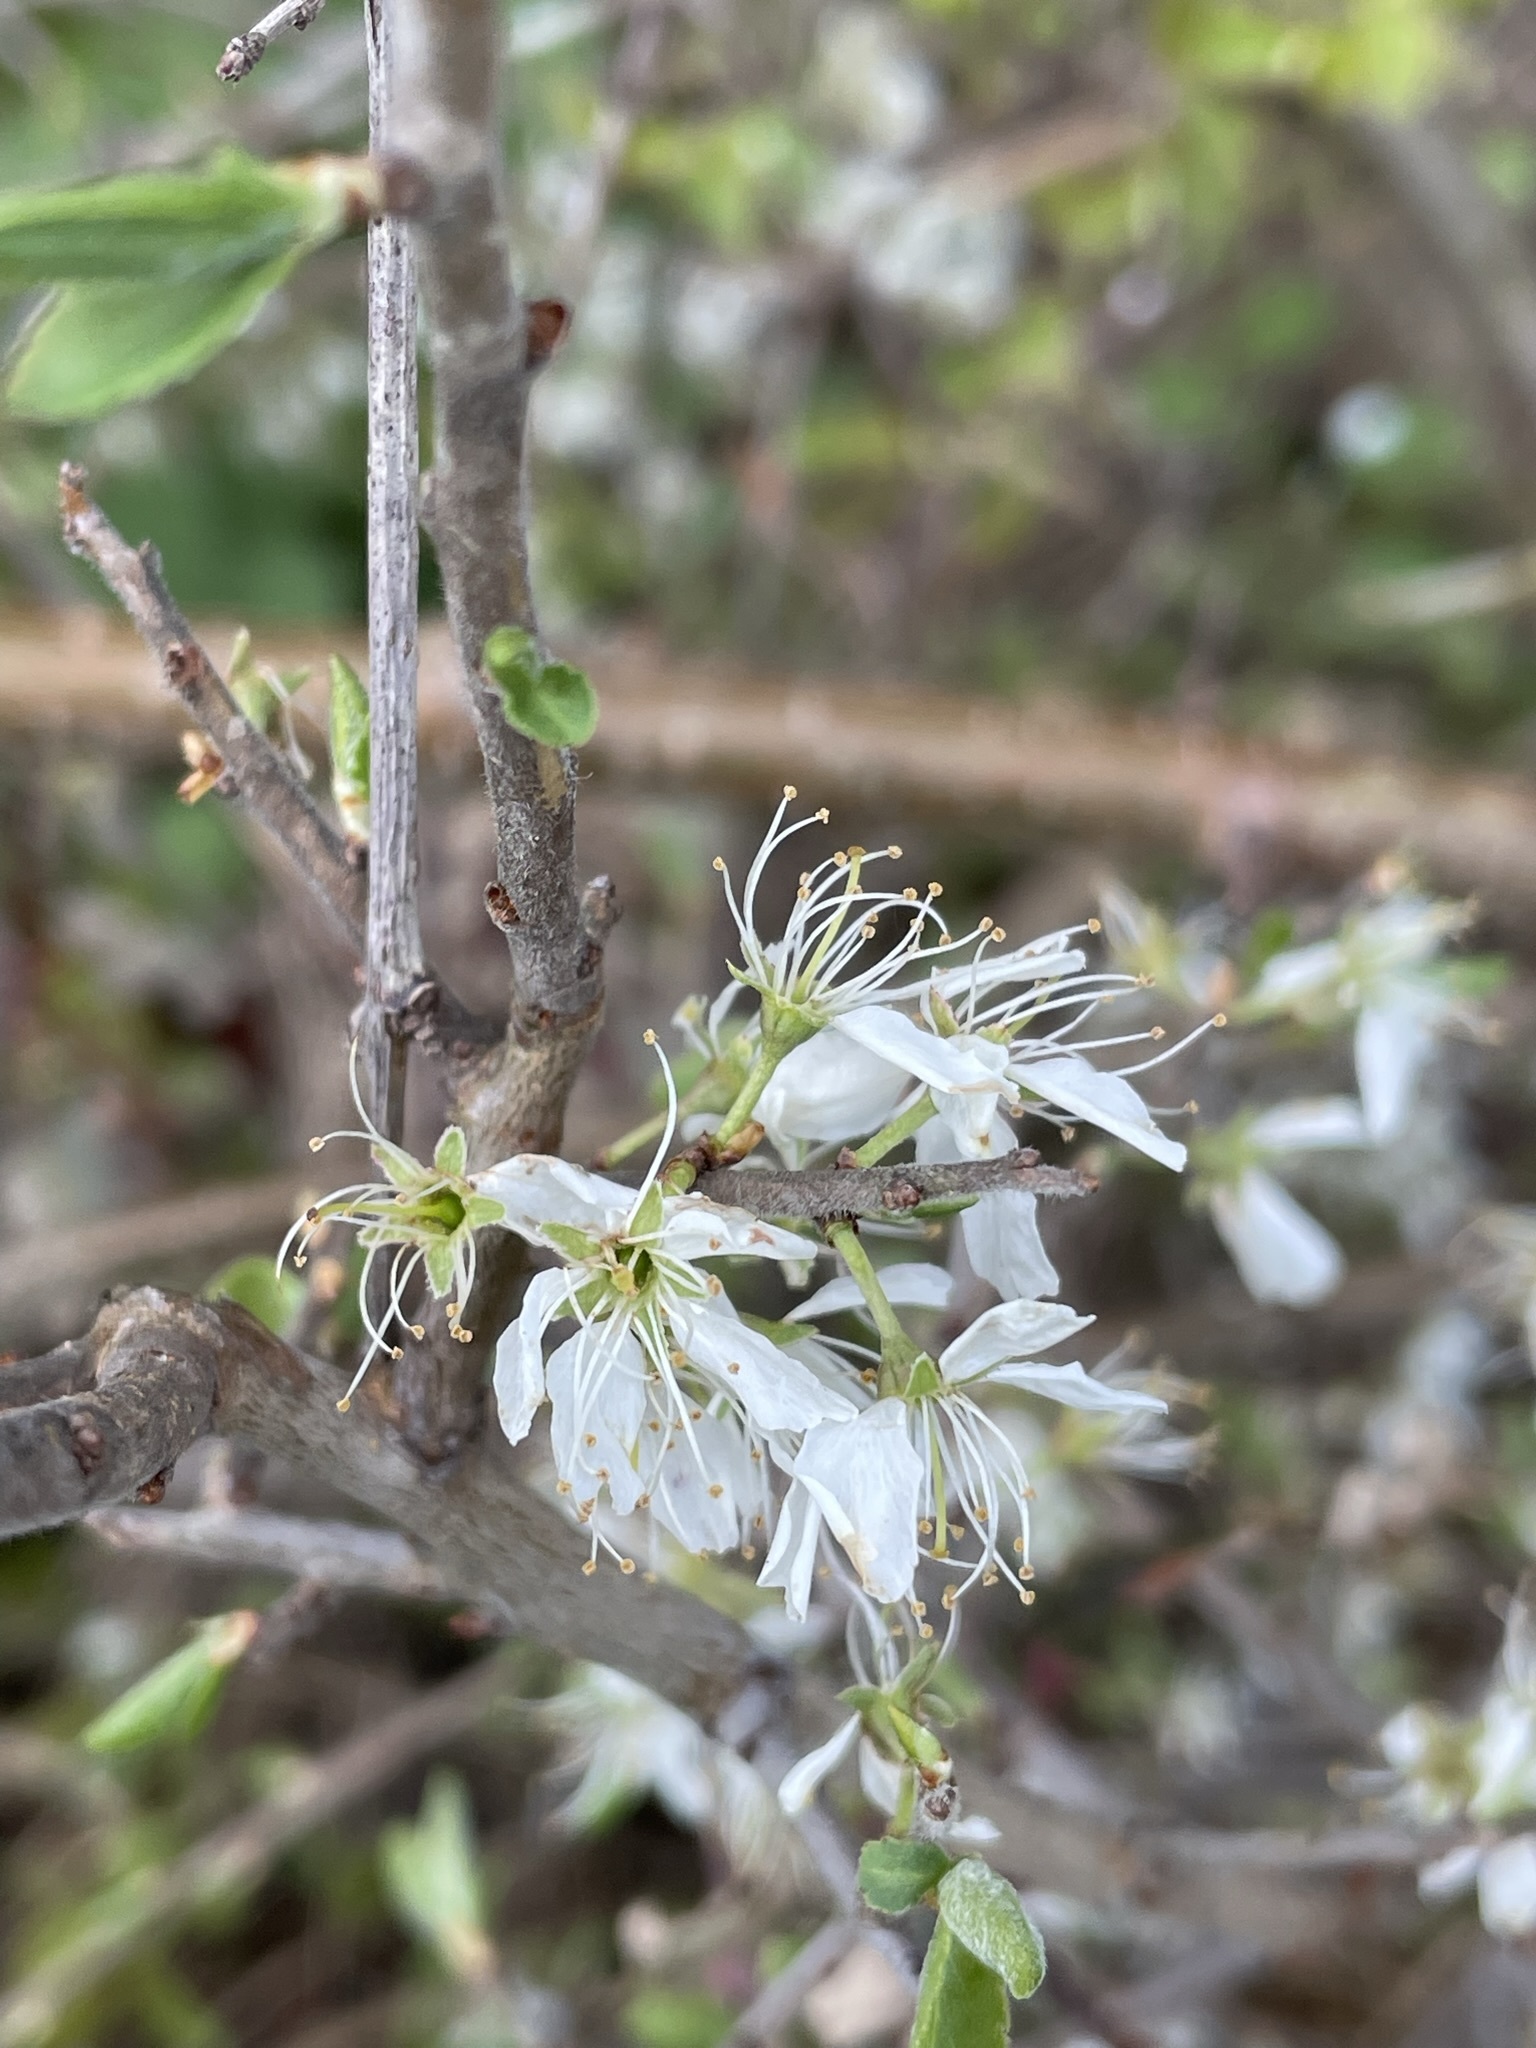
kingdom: Plantae
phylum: Tracheophyta
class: Magnoliopsida
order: Rosales
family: Rosaceae
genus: Prunus
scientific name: Prunus spinosa
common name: Blackthorn
